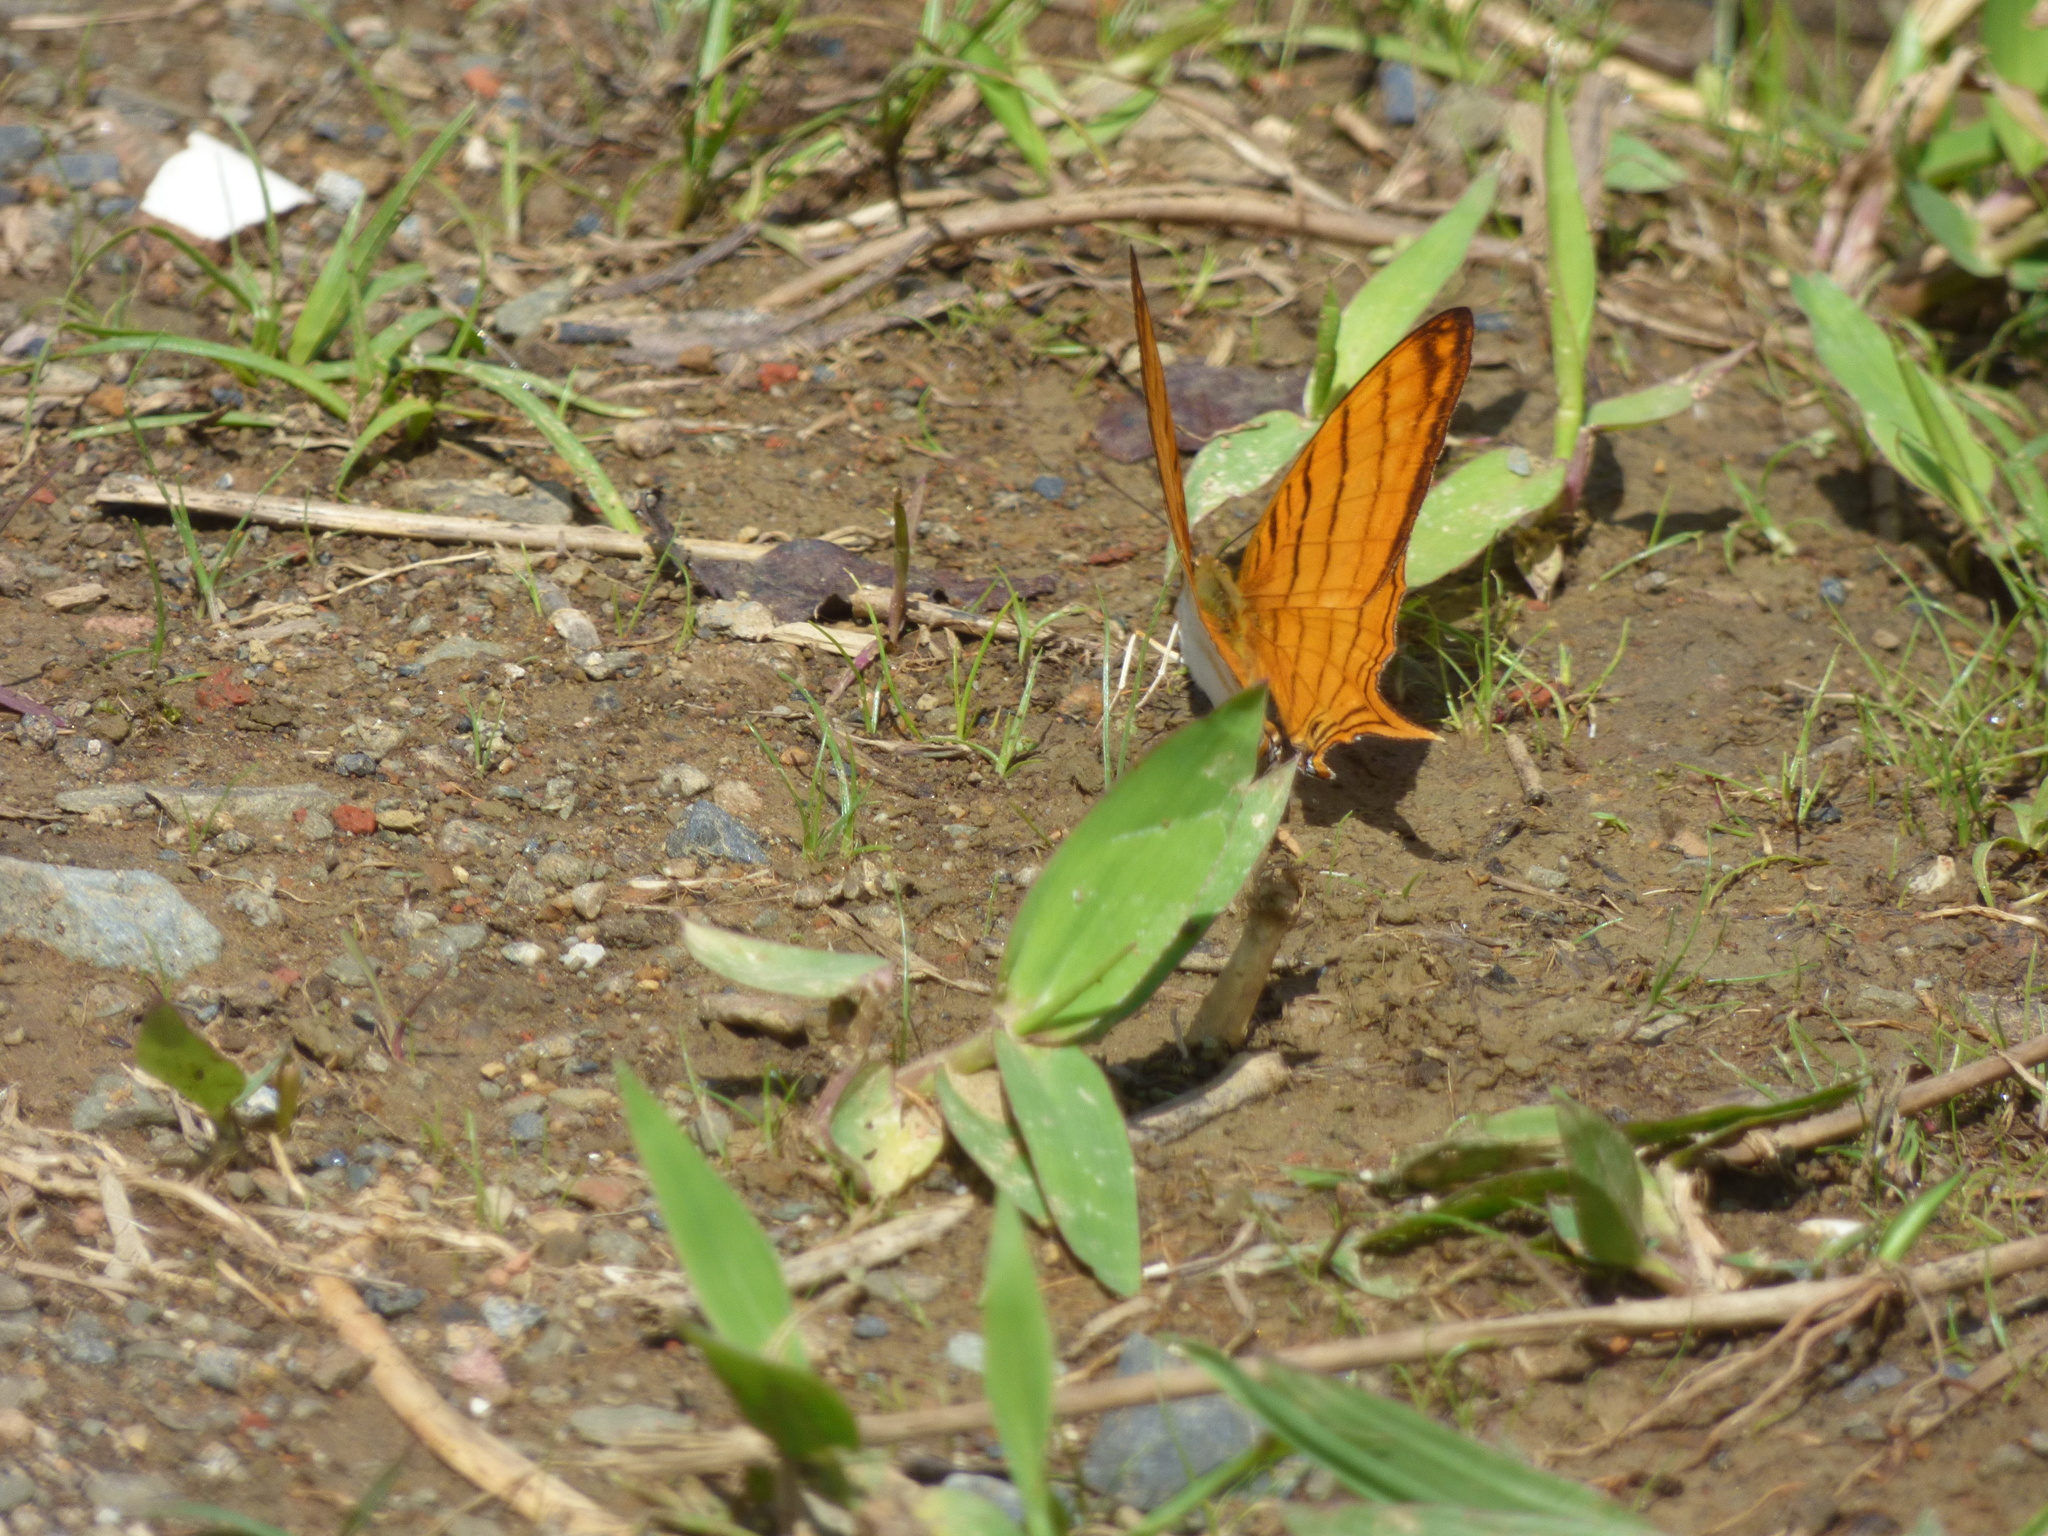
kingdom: Animalia
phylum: Arthropoda
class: Insecta
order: Lepidoptera
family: Nymphalidae
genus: Marpesia
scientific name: Marpesia berania
